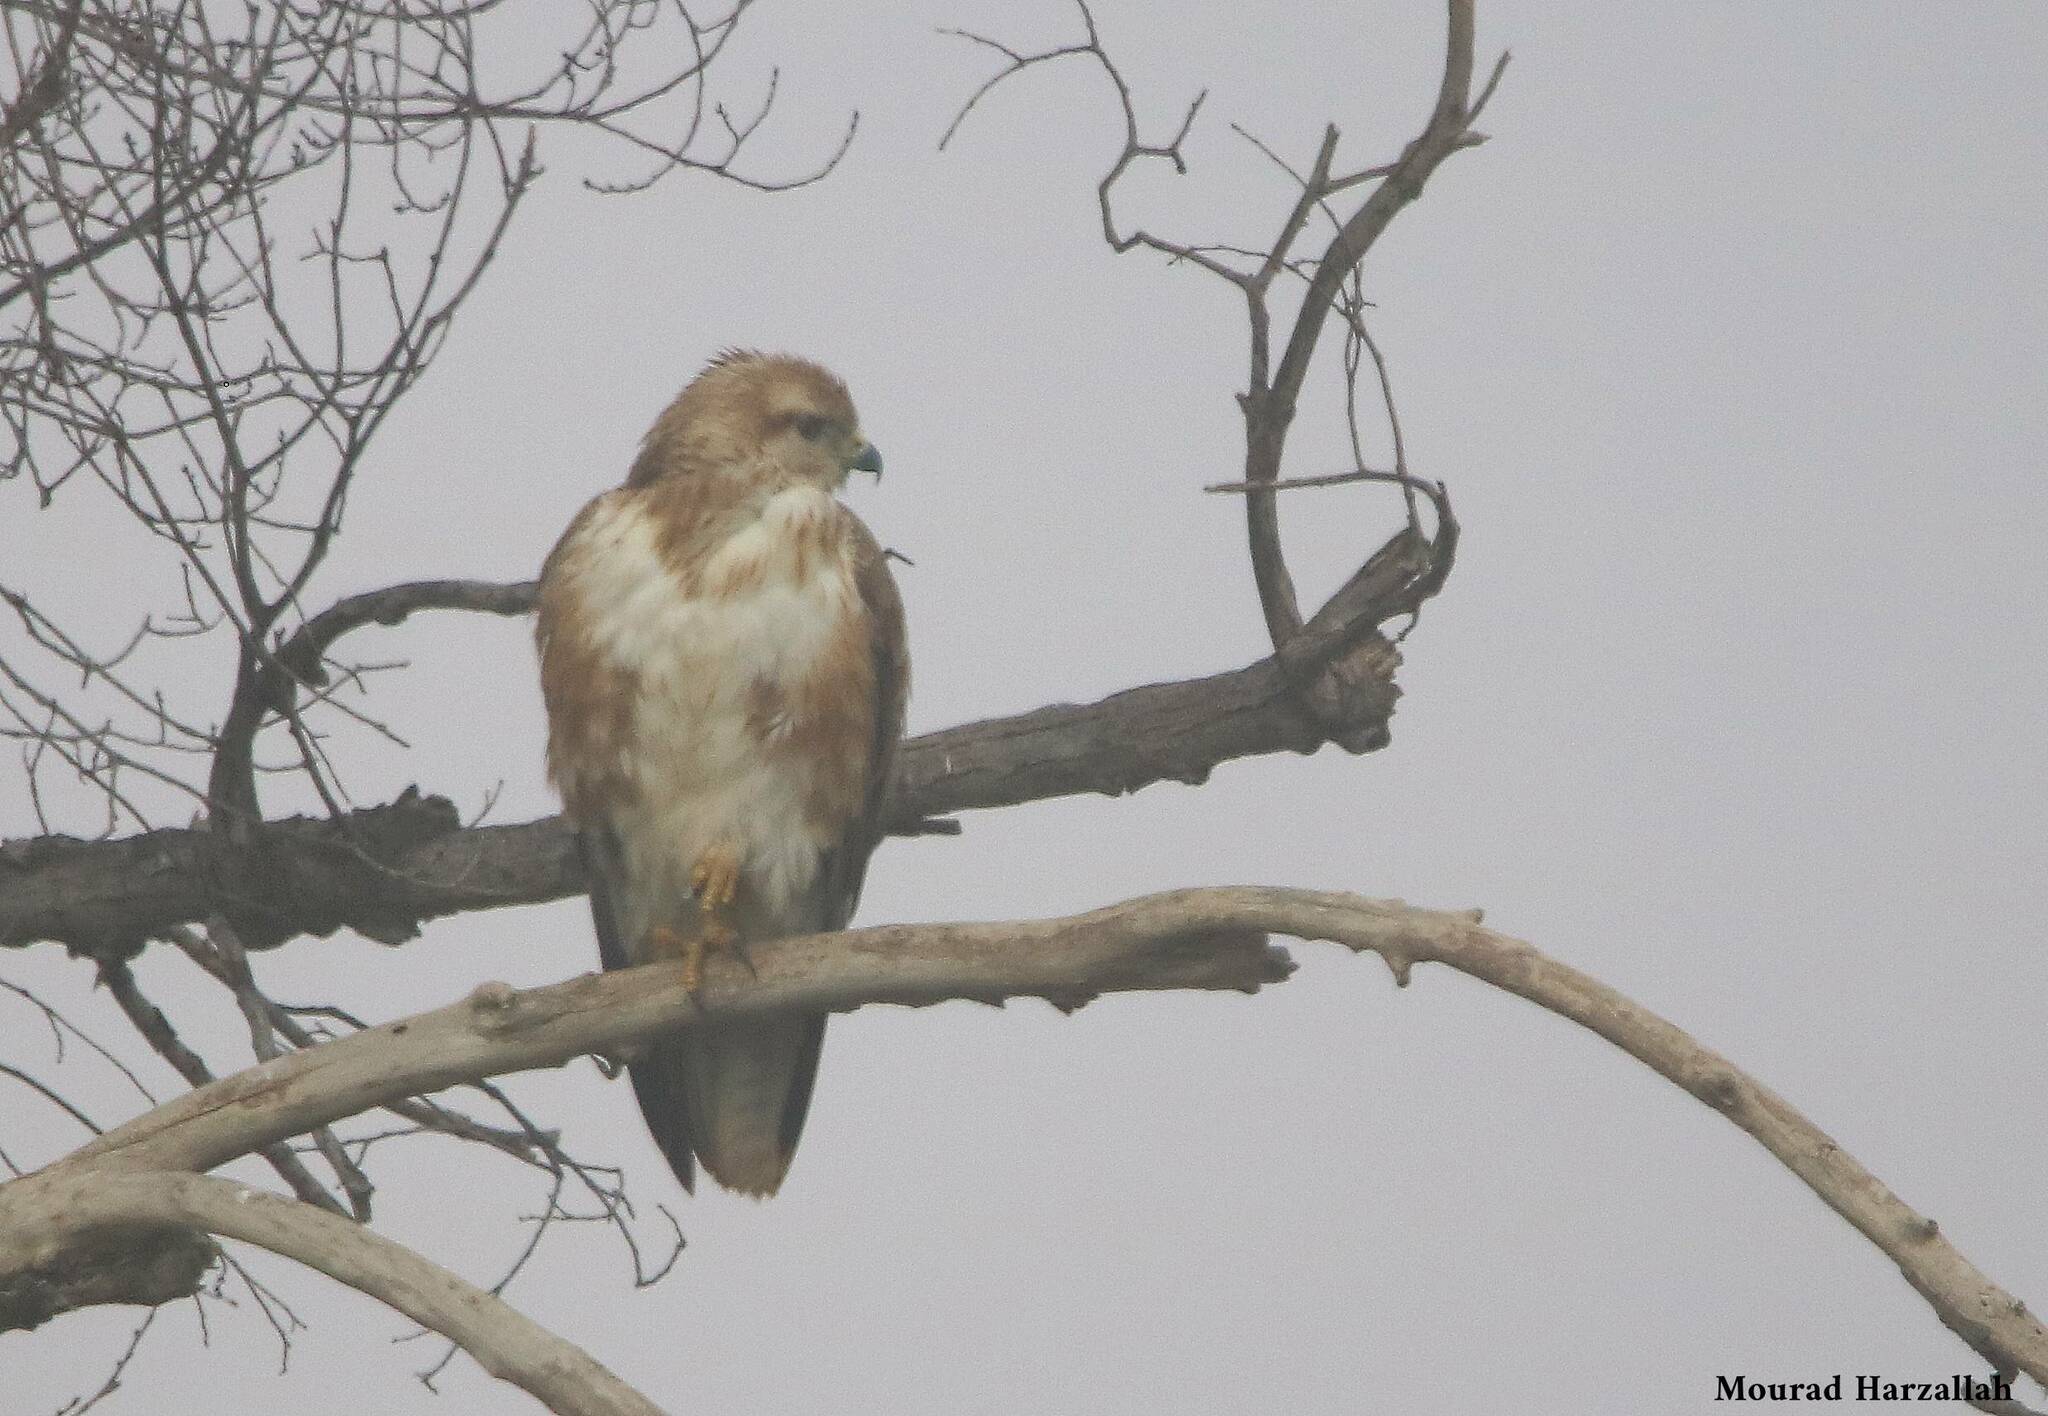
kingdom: Animalia
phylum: Chordata
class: Aves
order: Accipitriformes
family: Accipitridae
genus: Buteo
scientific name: Buteo rufinus
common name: Long-legged buzzard
